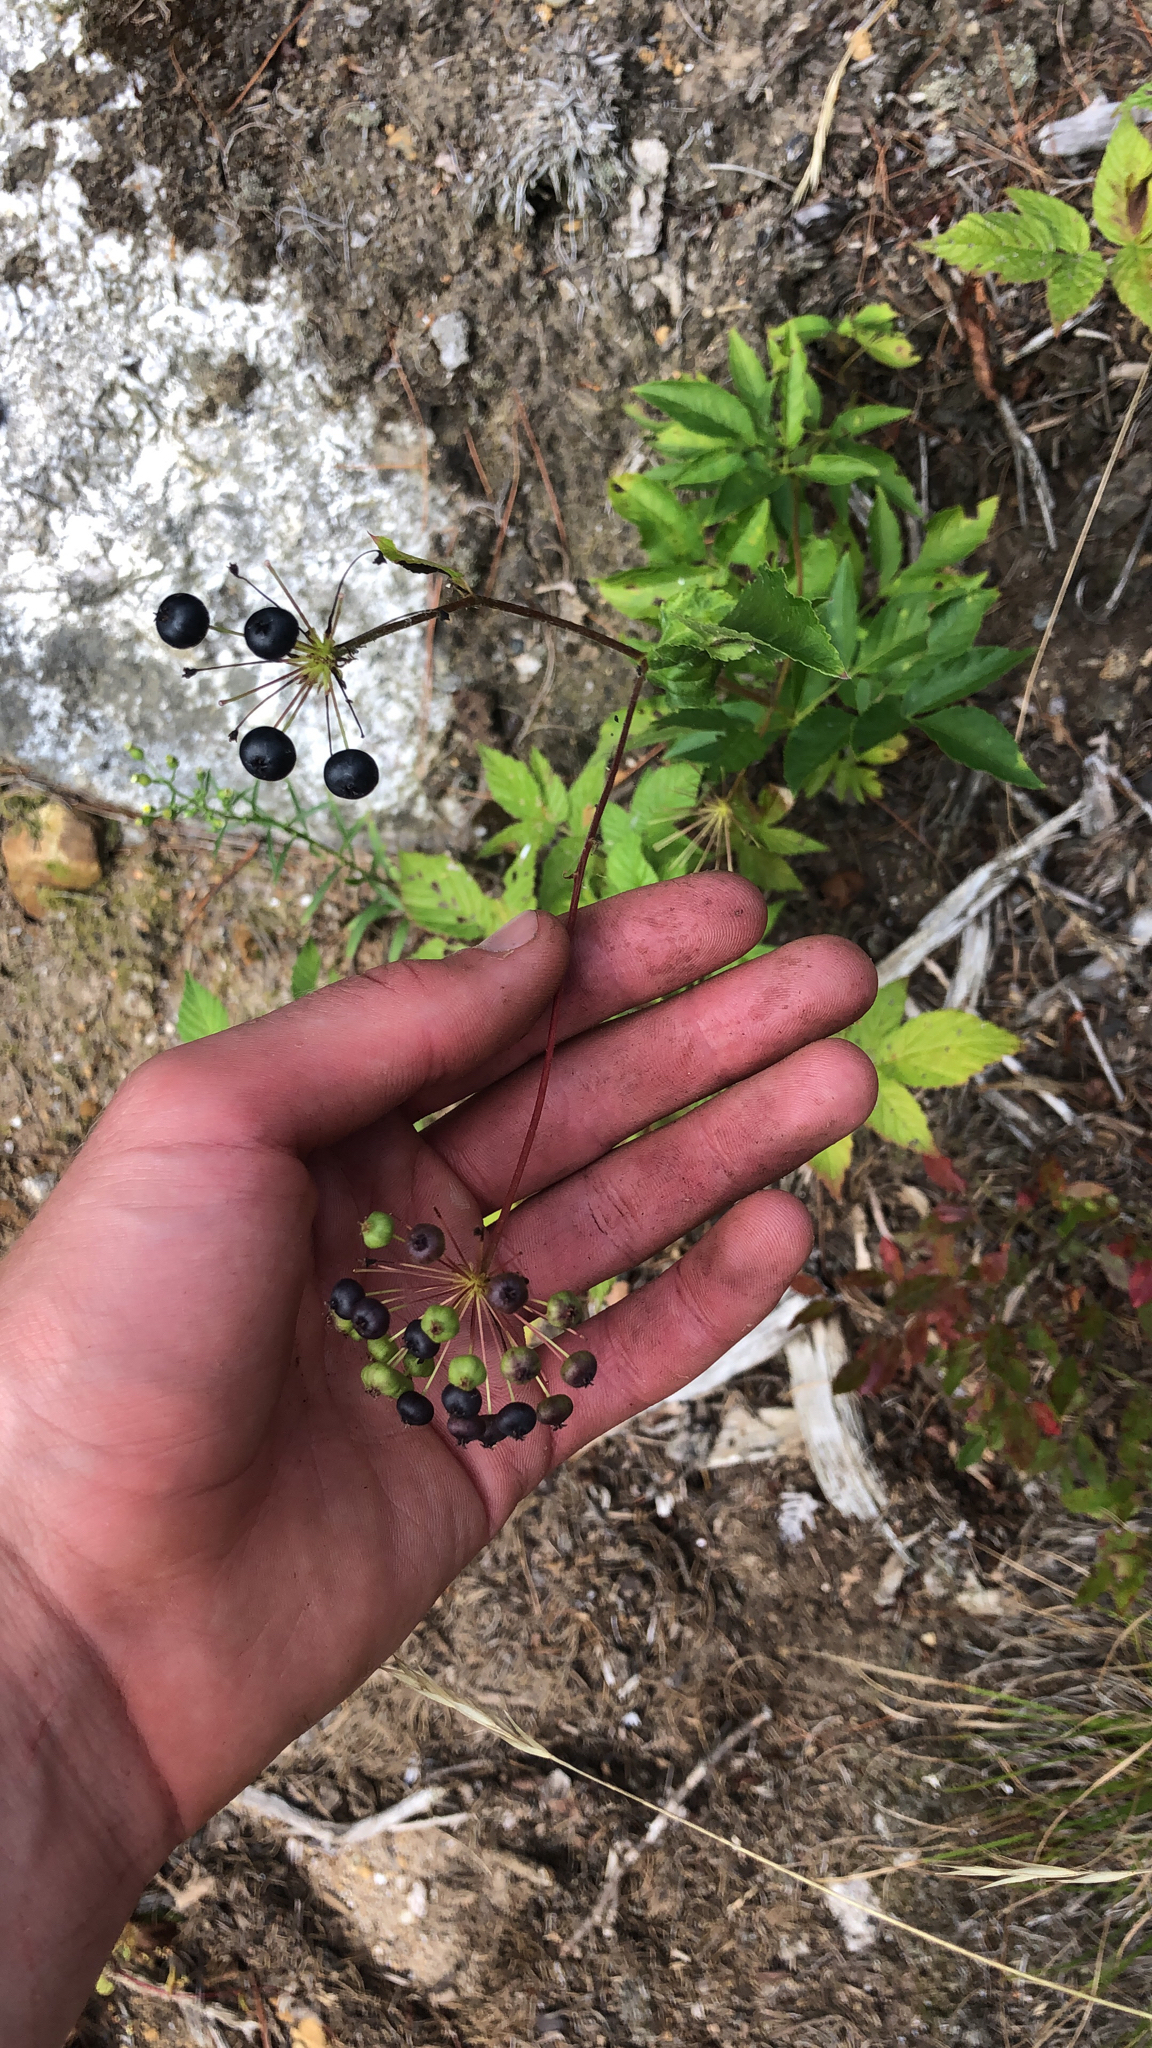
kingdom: Plantae
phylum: Tracheophyta
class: Magnoliopsida
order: Apiales
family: Araliaceae
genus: Aralia
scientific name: Aralia hispida
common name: Bristly sarsaparilla
